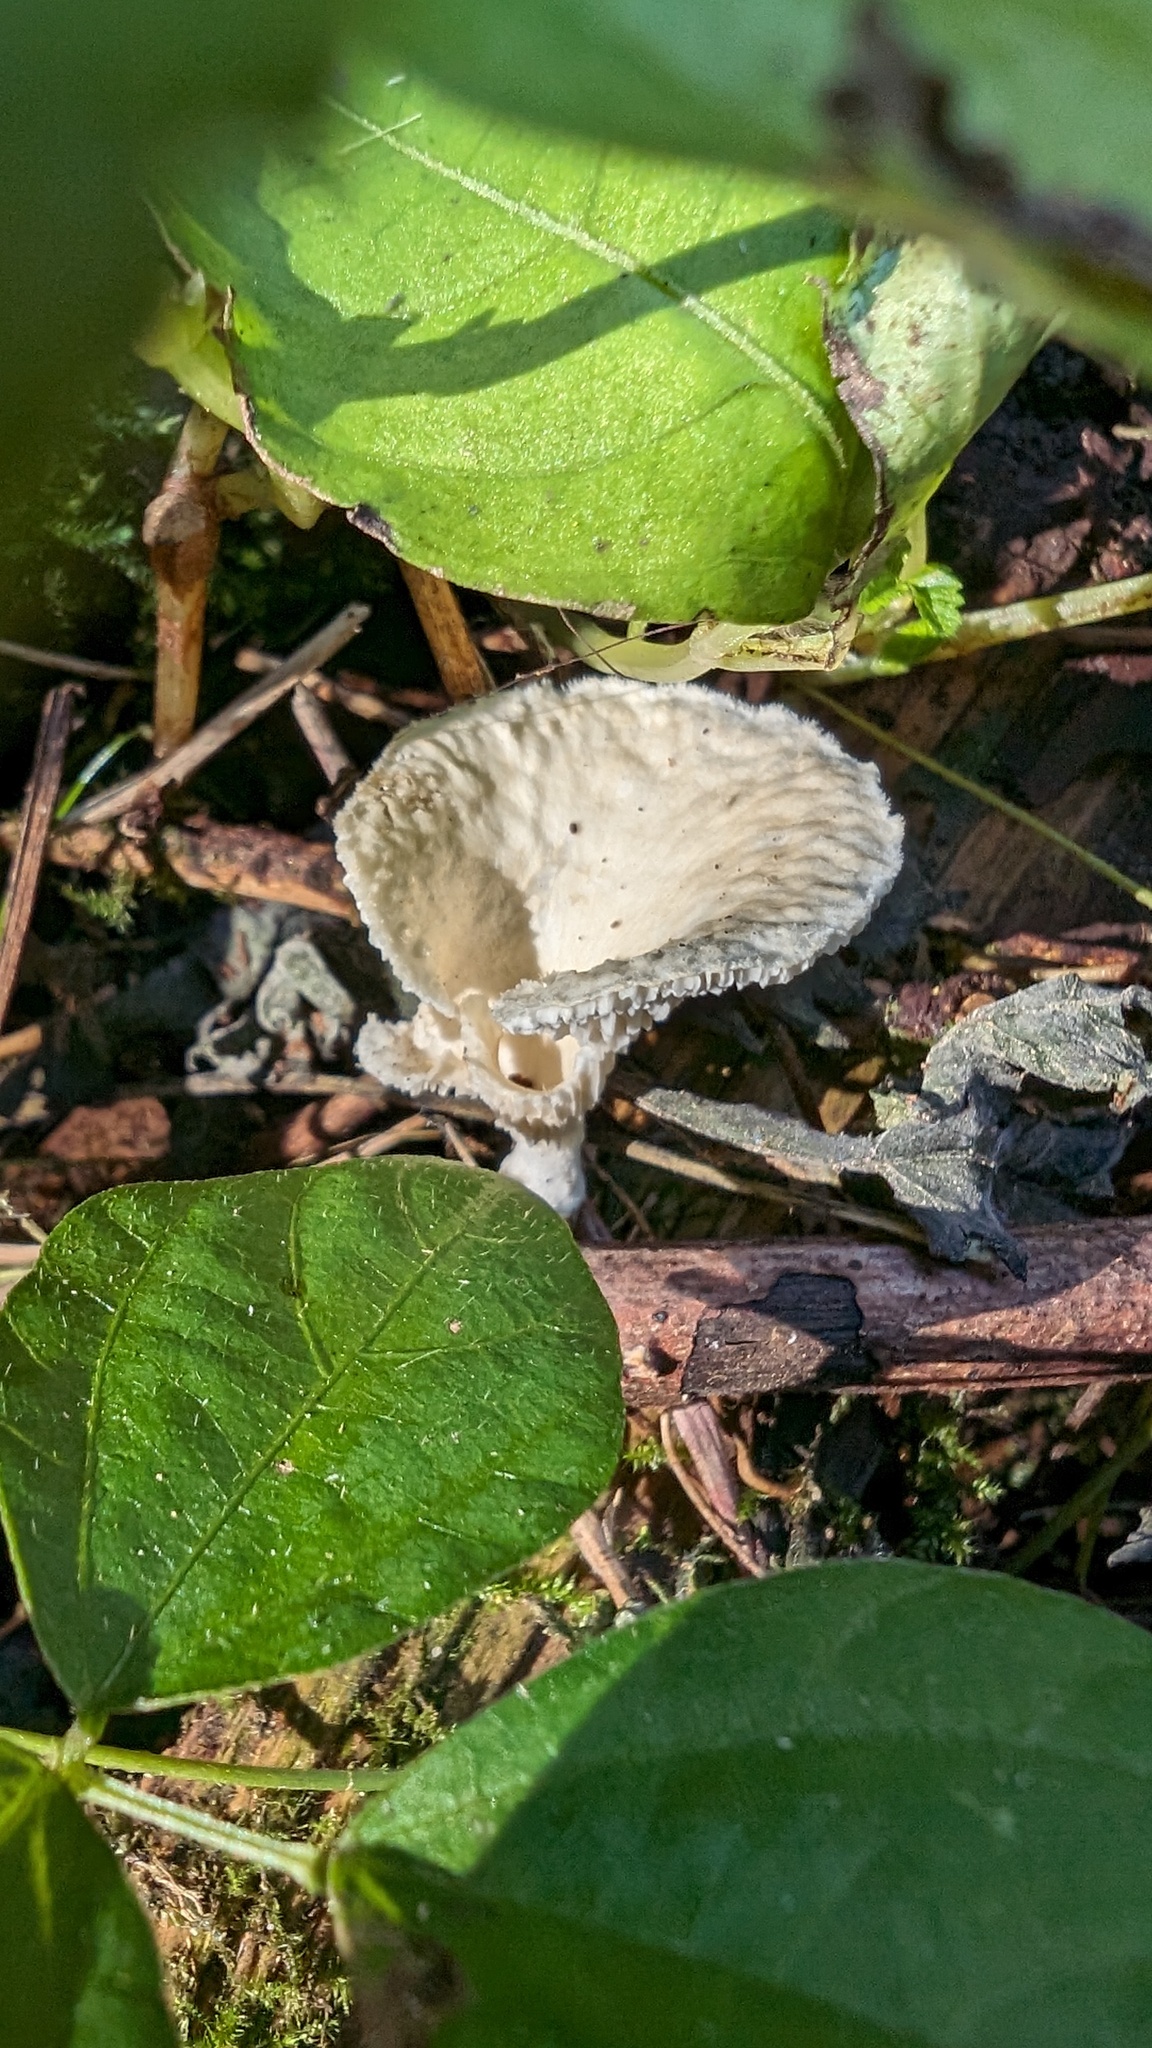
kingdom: Fungi
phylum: Basidiomycota
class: Agaricomycetes
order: Polyporales
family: Polyporaceae
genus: Neofavolus
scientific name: Neofavolus alveolaris
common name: Hexagonal-pored polypore
